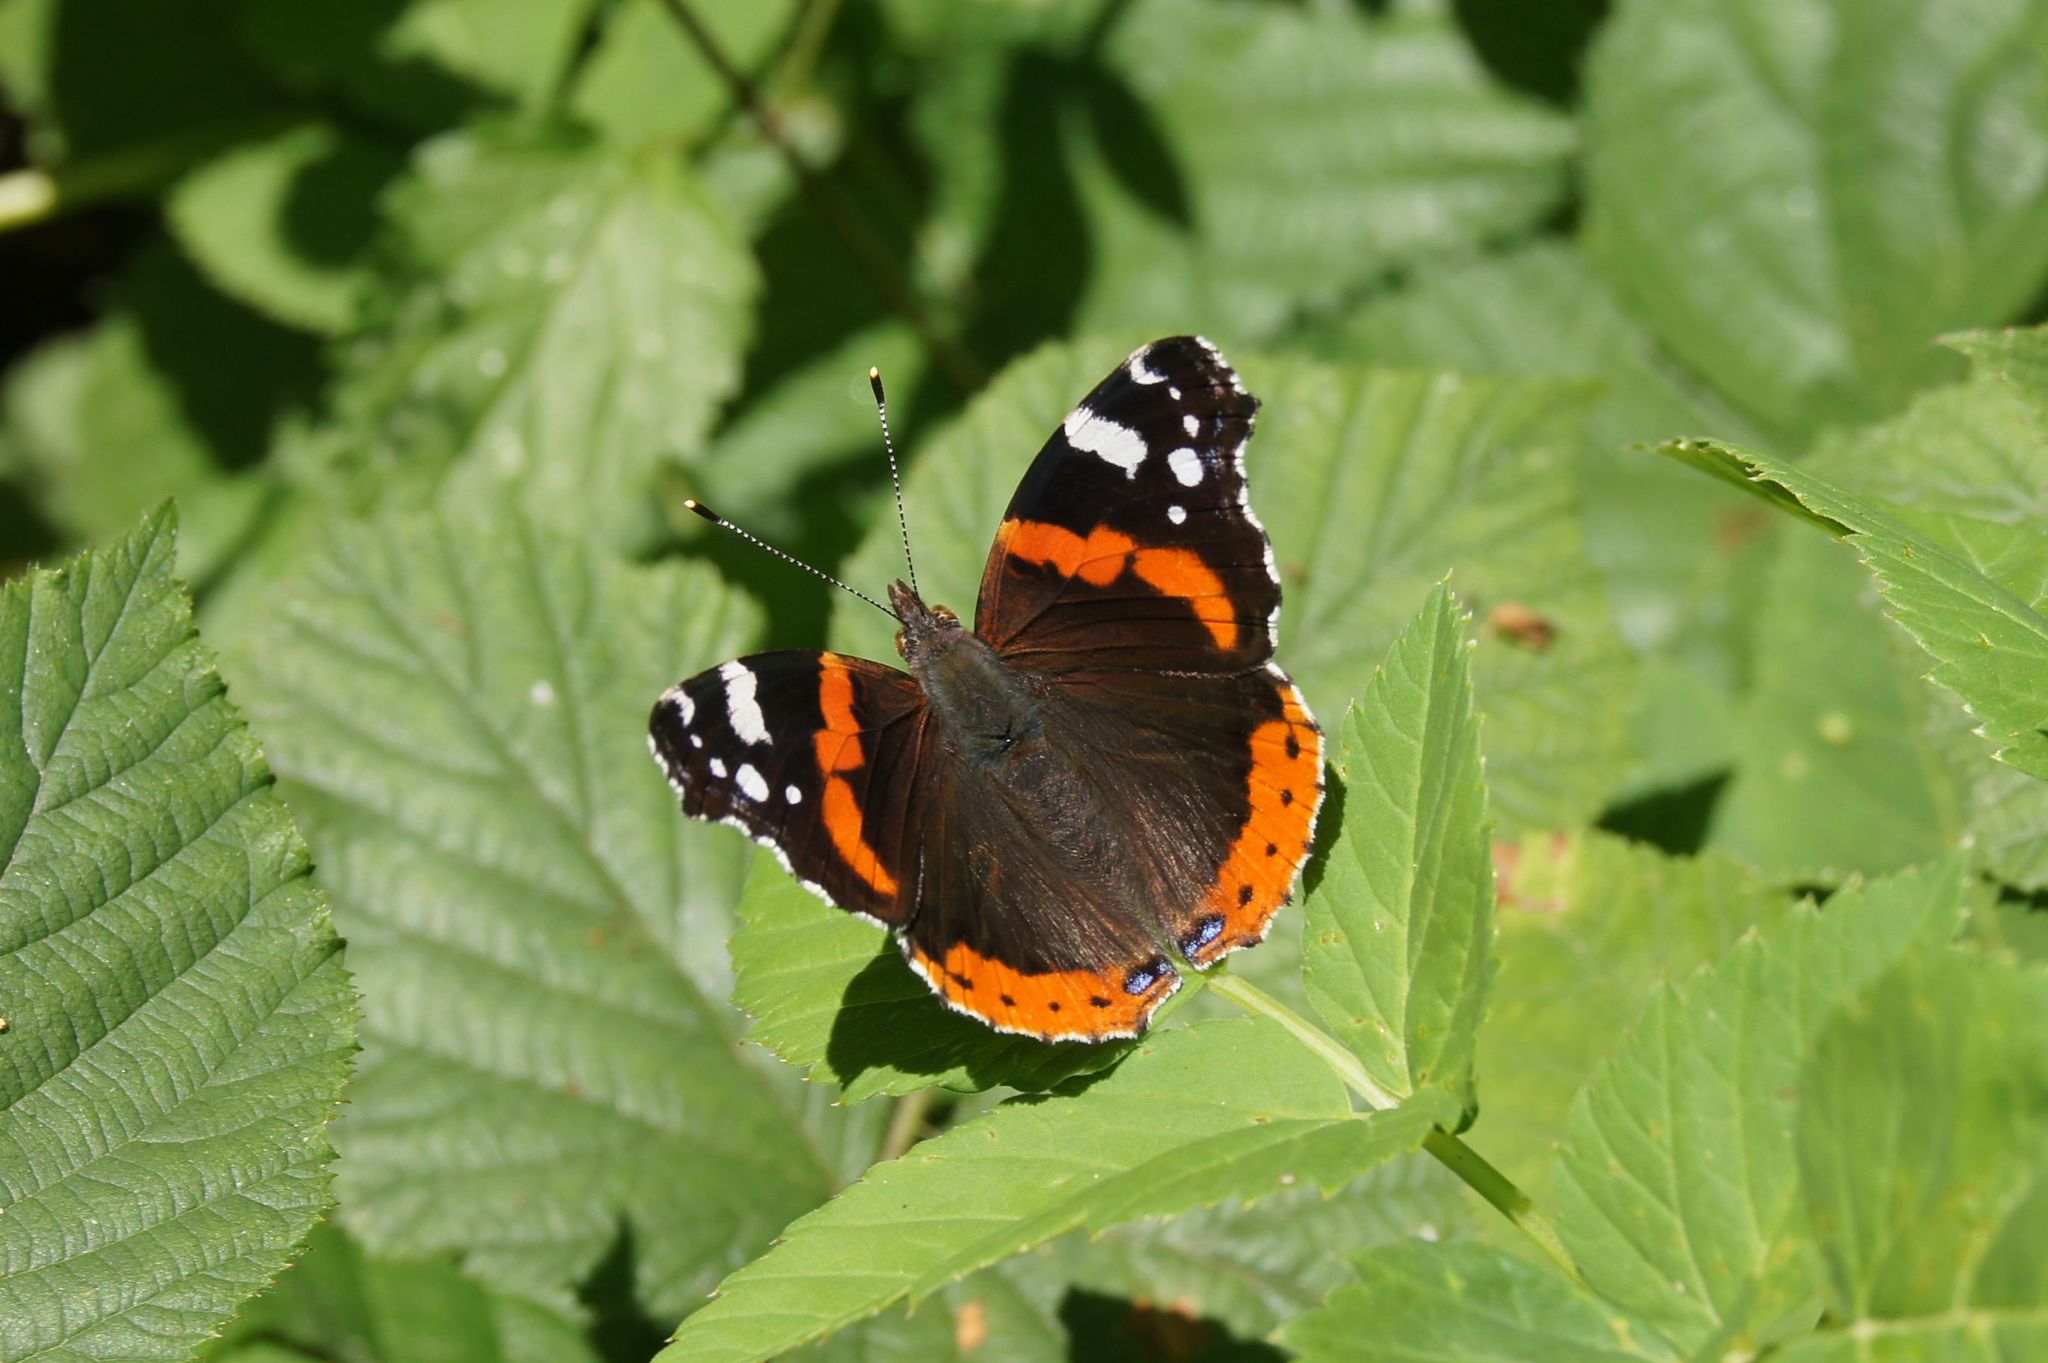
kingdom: Animalia
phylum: Arthropoda
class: Insecta
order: Lepidoptera
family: Nymphalidae
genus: Vanessa
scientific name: Vanessa atalanta
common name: Red admiral
